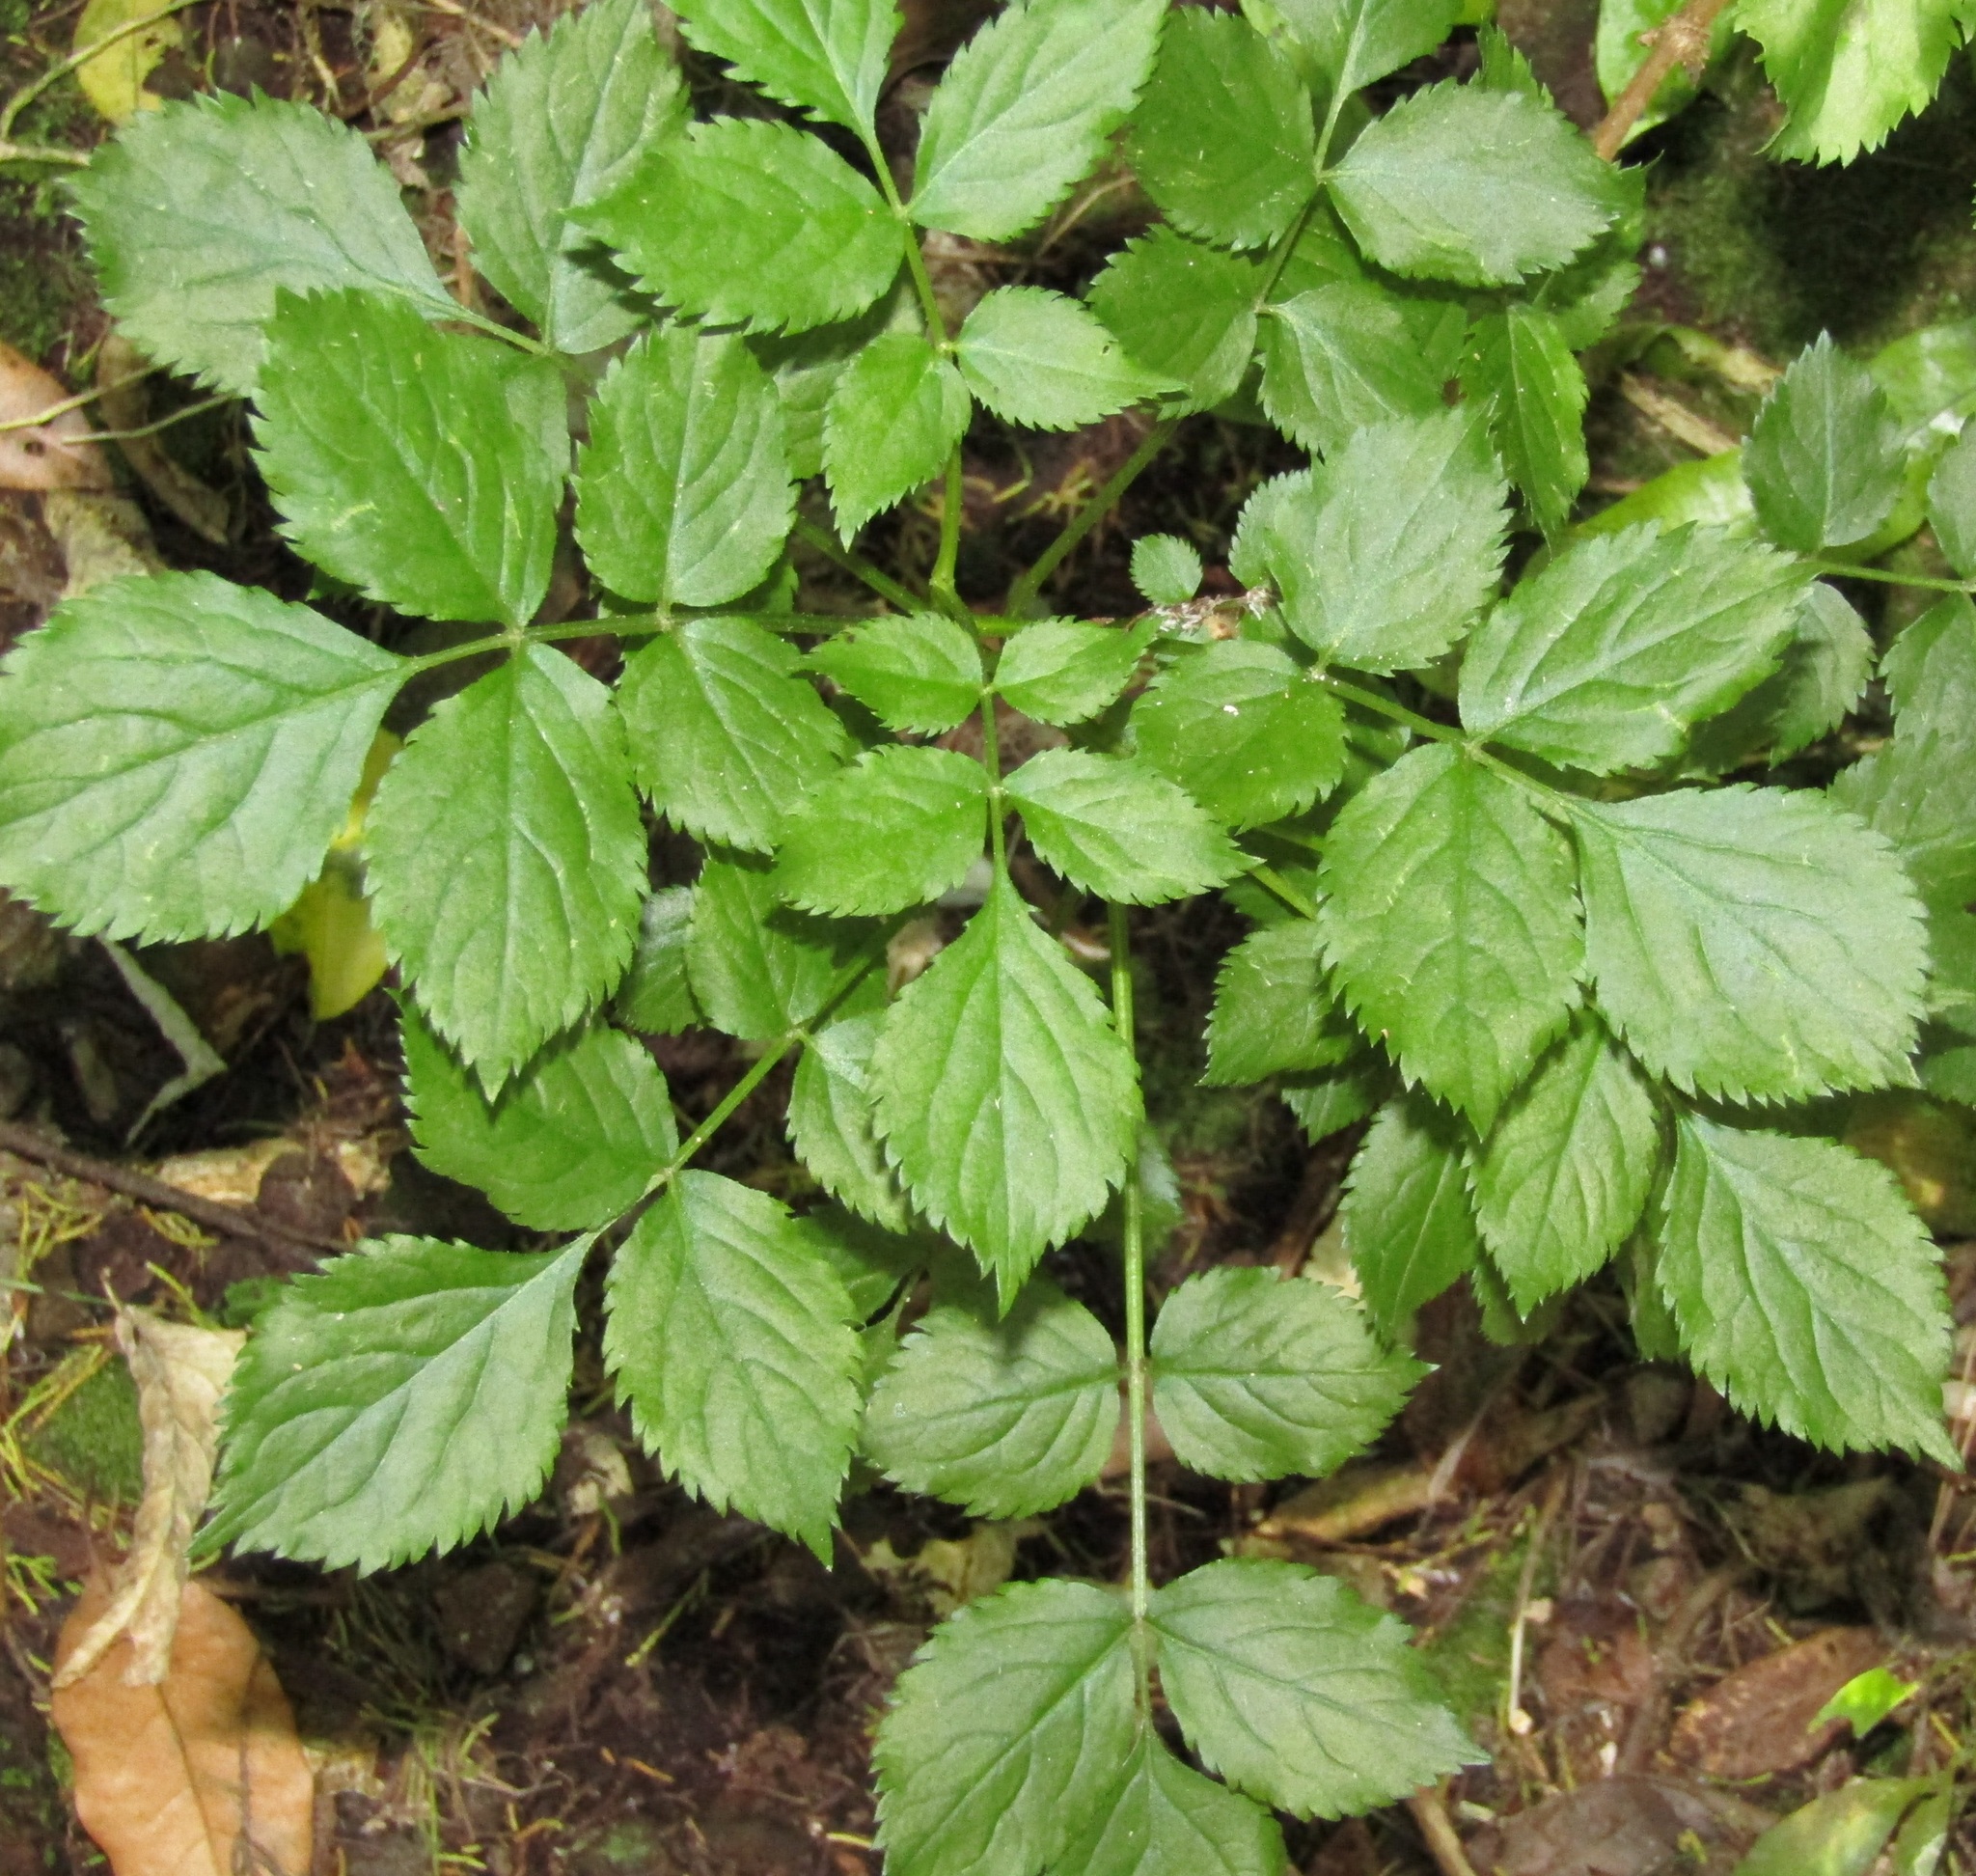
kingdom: Plantae
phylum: Tracheophyta
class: Magnoliopsida
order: Dipsacales
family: Viburnaceae
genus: Sambucus
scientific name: Sambucus nigra
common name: Elder
